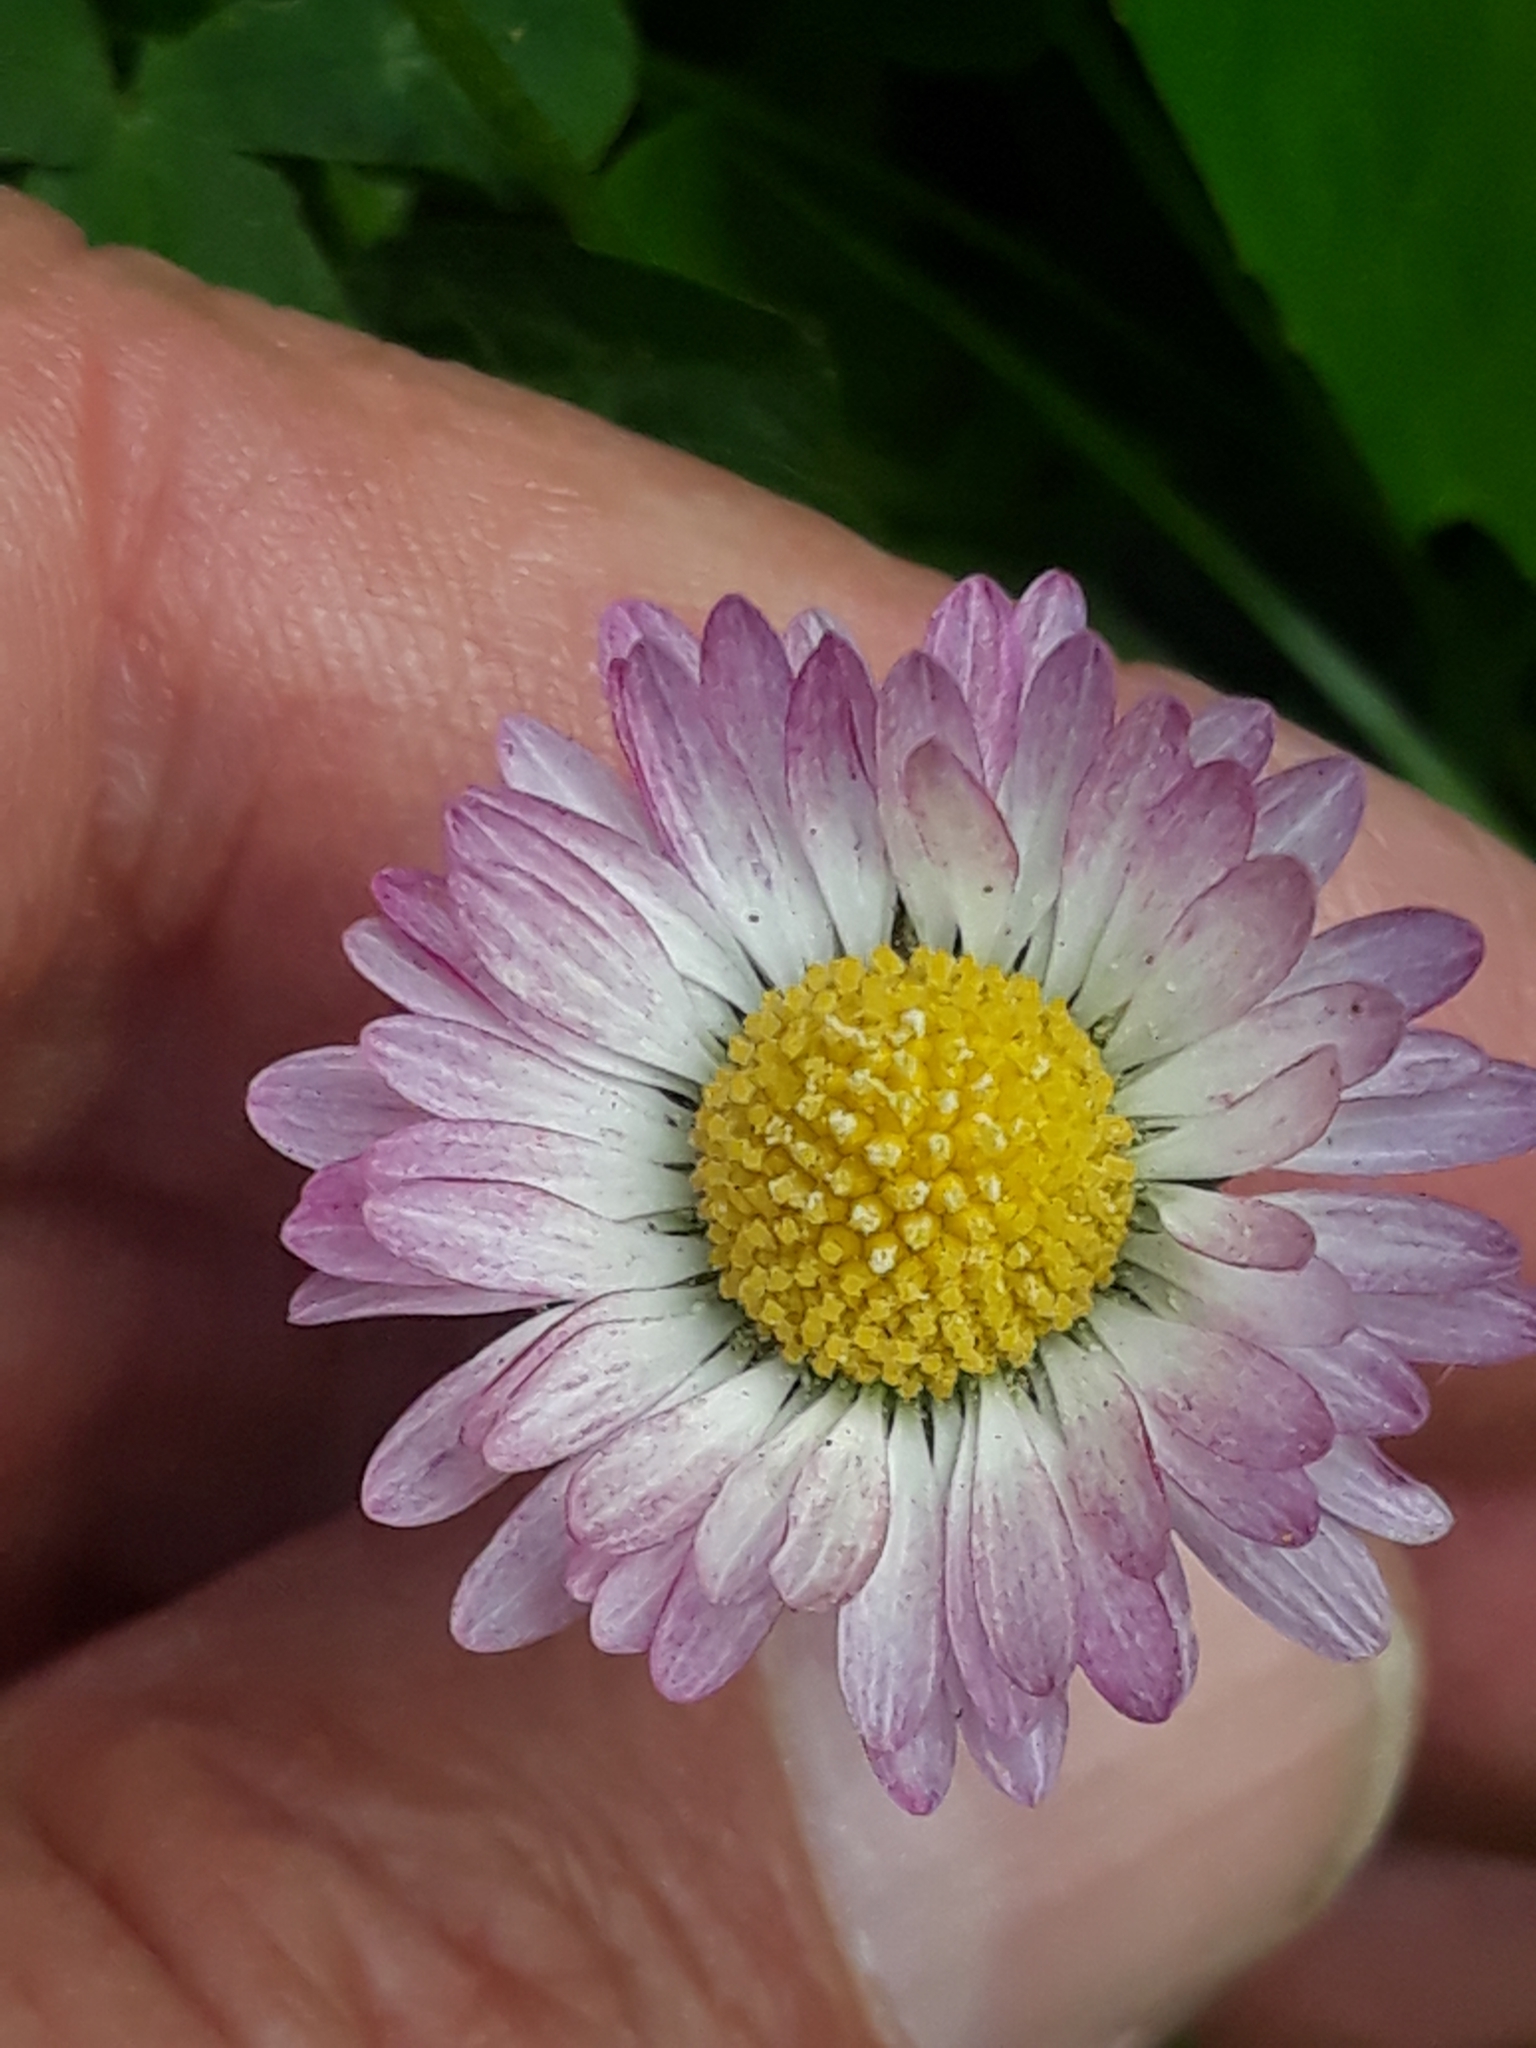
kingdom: Plantae
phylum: Tracheophyta
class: Magnoliopsida
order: Asterales
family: Asteraceae
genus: Bellis
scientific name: Bellis perennis
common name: Lawndaisy
